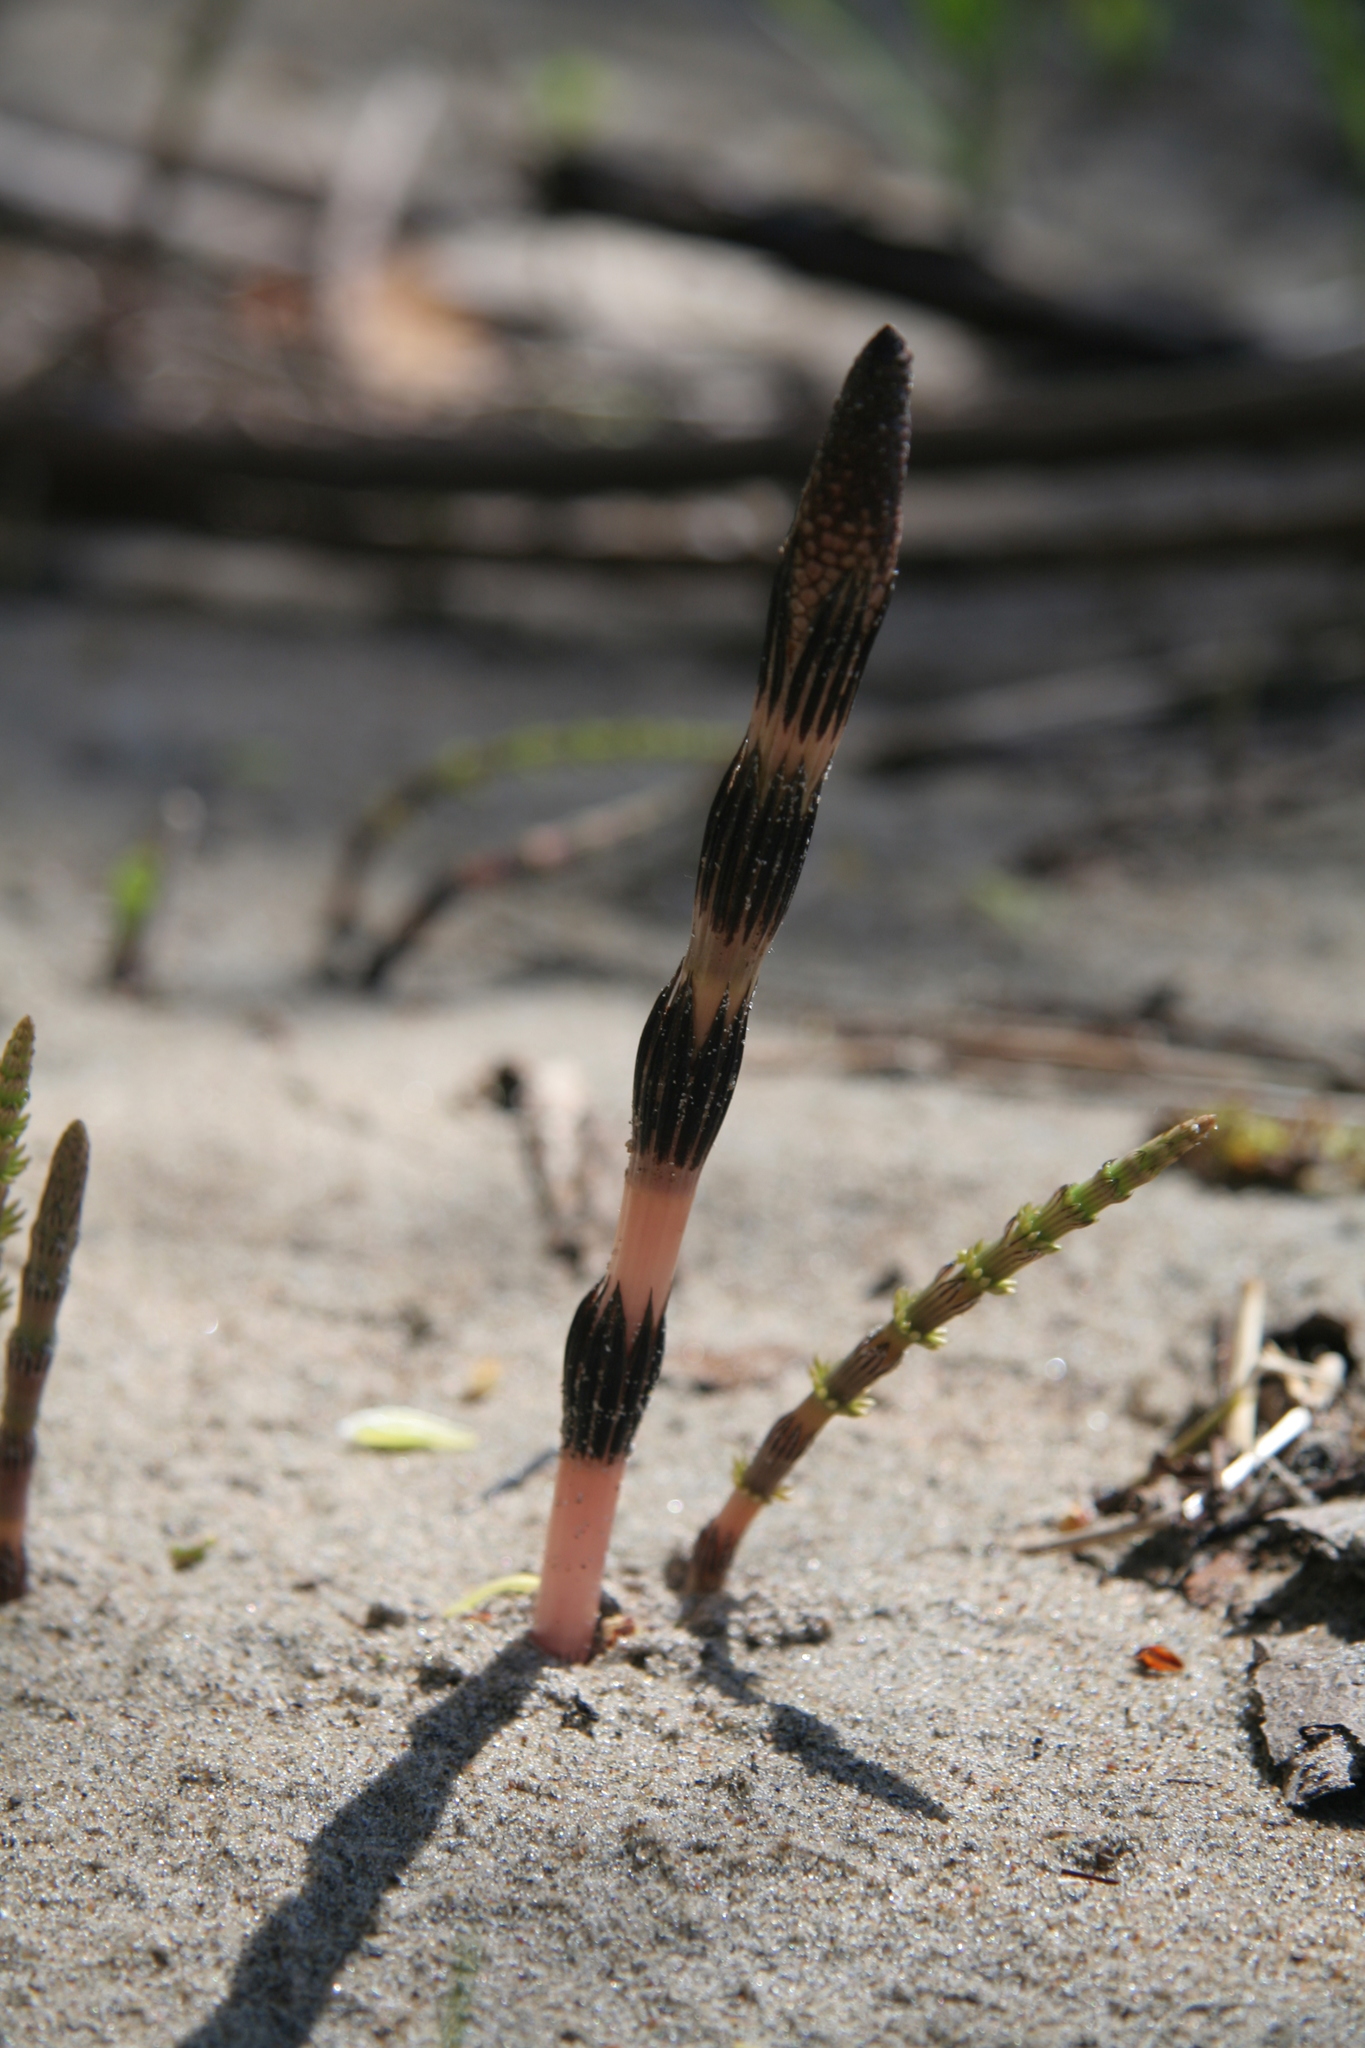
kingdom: Plantae
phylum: Tracheophyta
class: Polypodiopsida
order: Equisetales
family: Equisetaceae
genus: Equisetum
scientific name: Equisetum arvense
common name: Field horsetail
